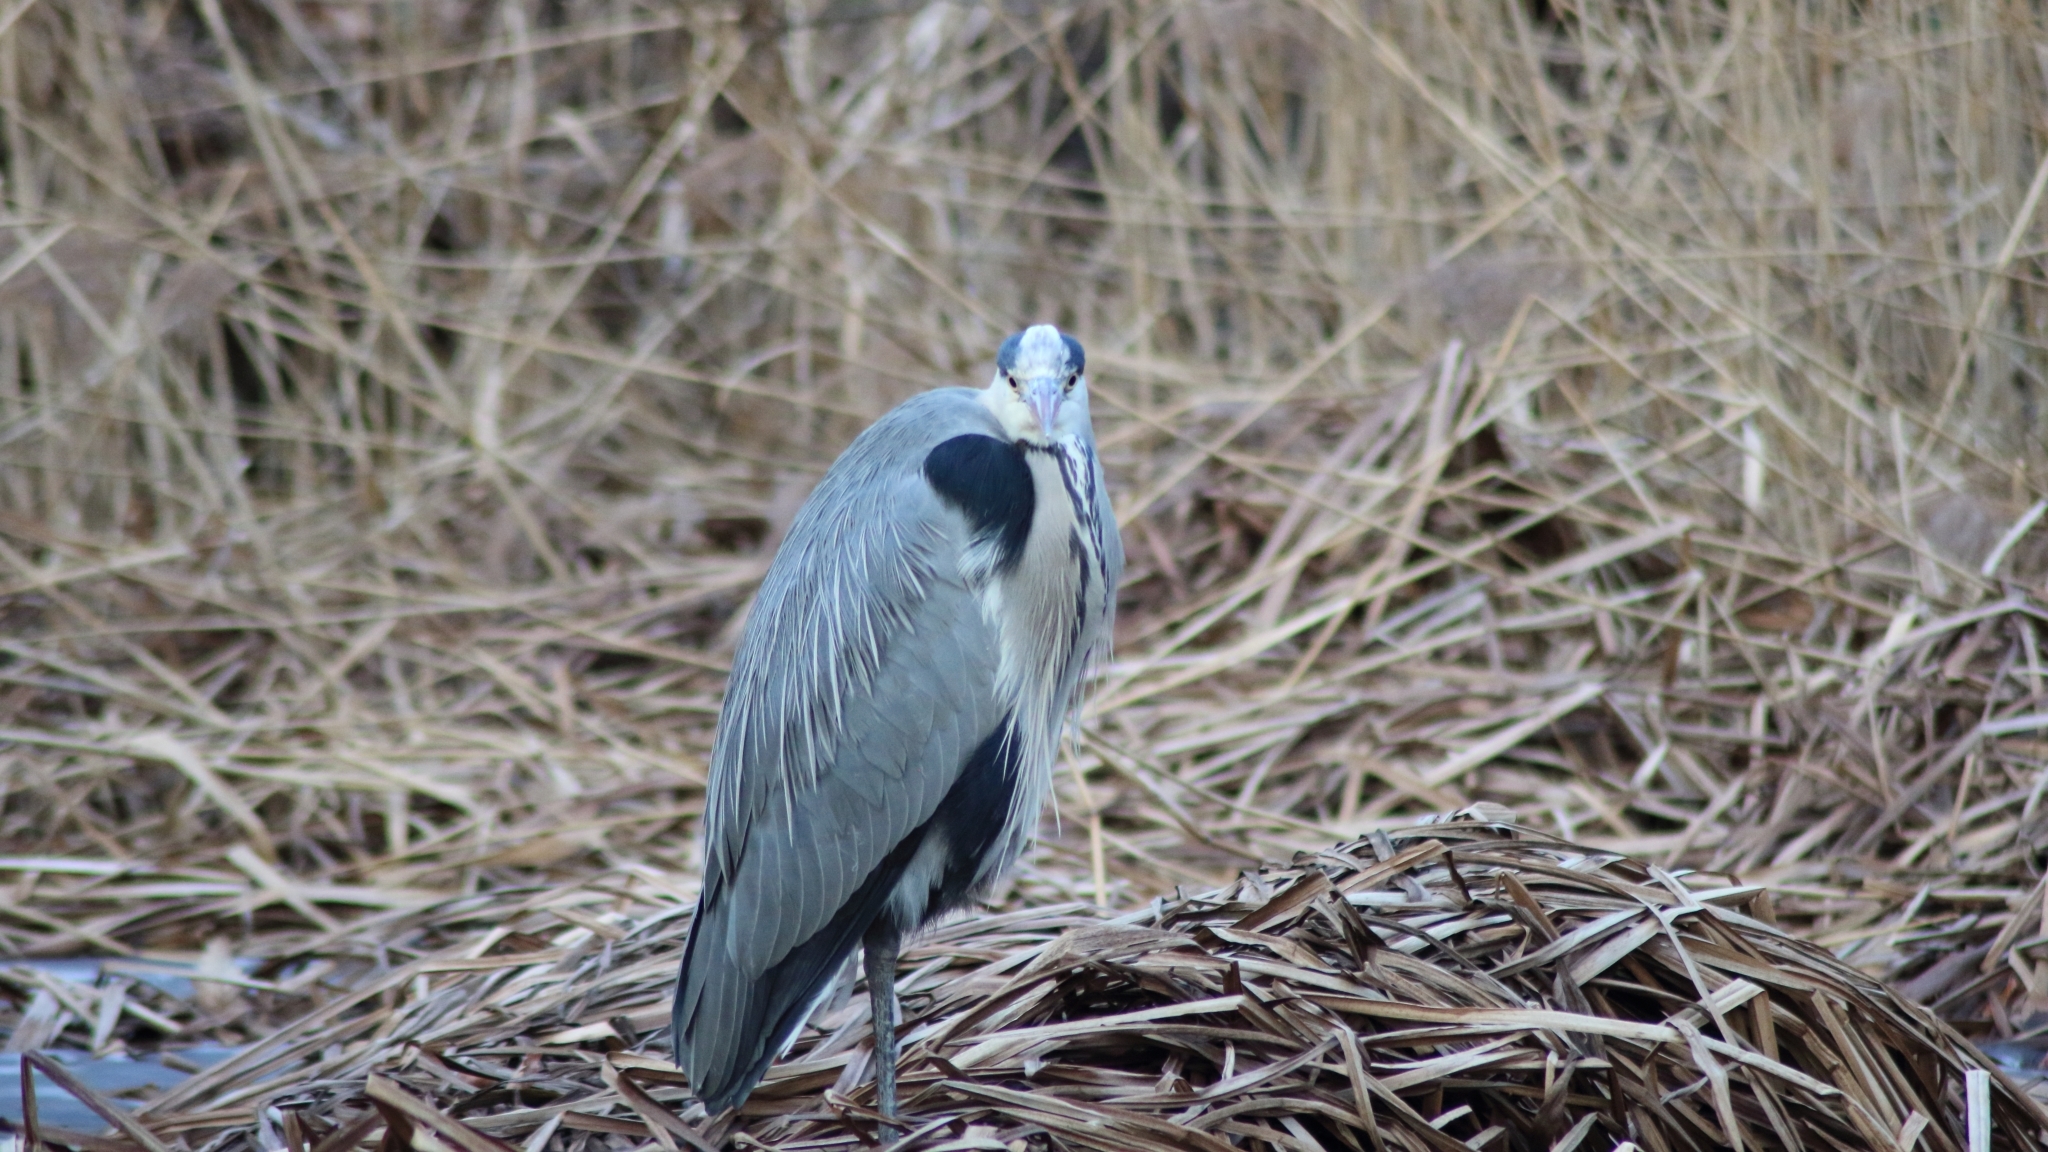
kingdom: Animalia
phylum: Chordata
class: Aves
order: Pelecaniformes
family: Ardeidae
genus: Ardea
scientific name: Ardea cinerea
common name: Grey heron
